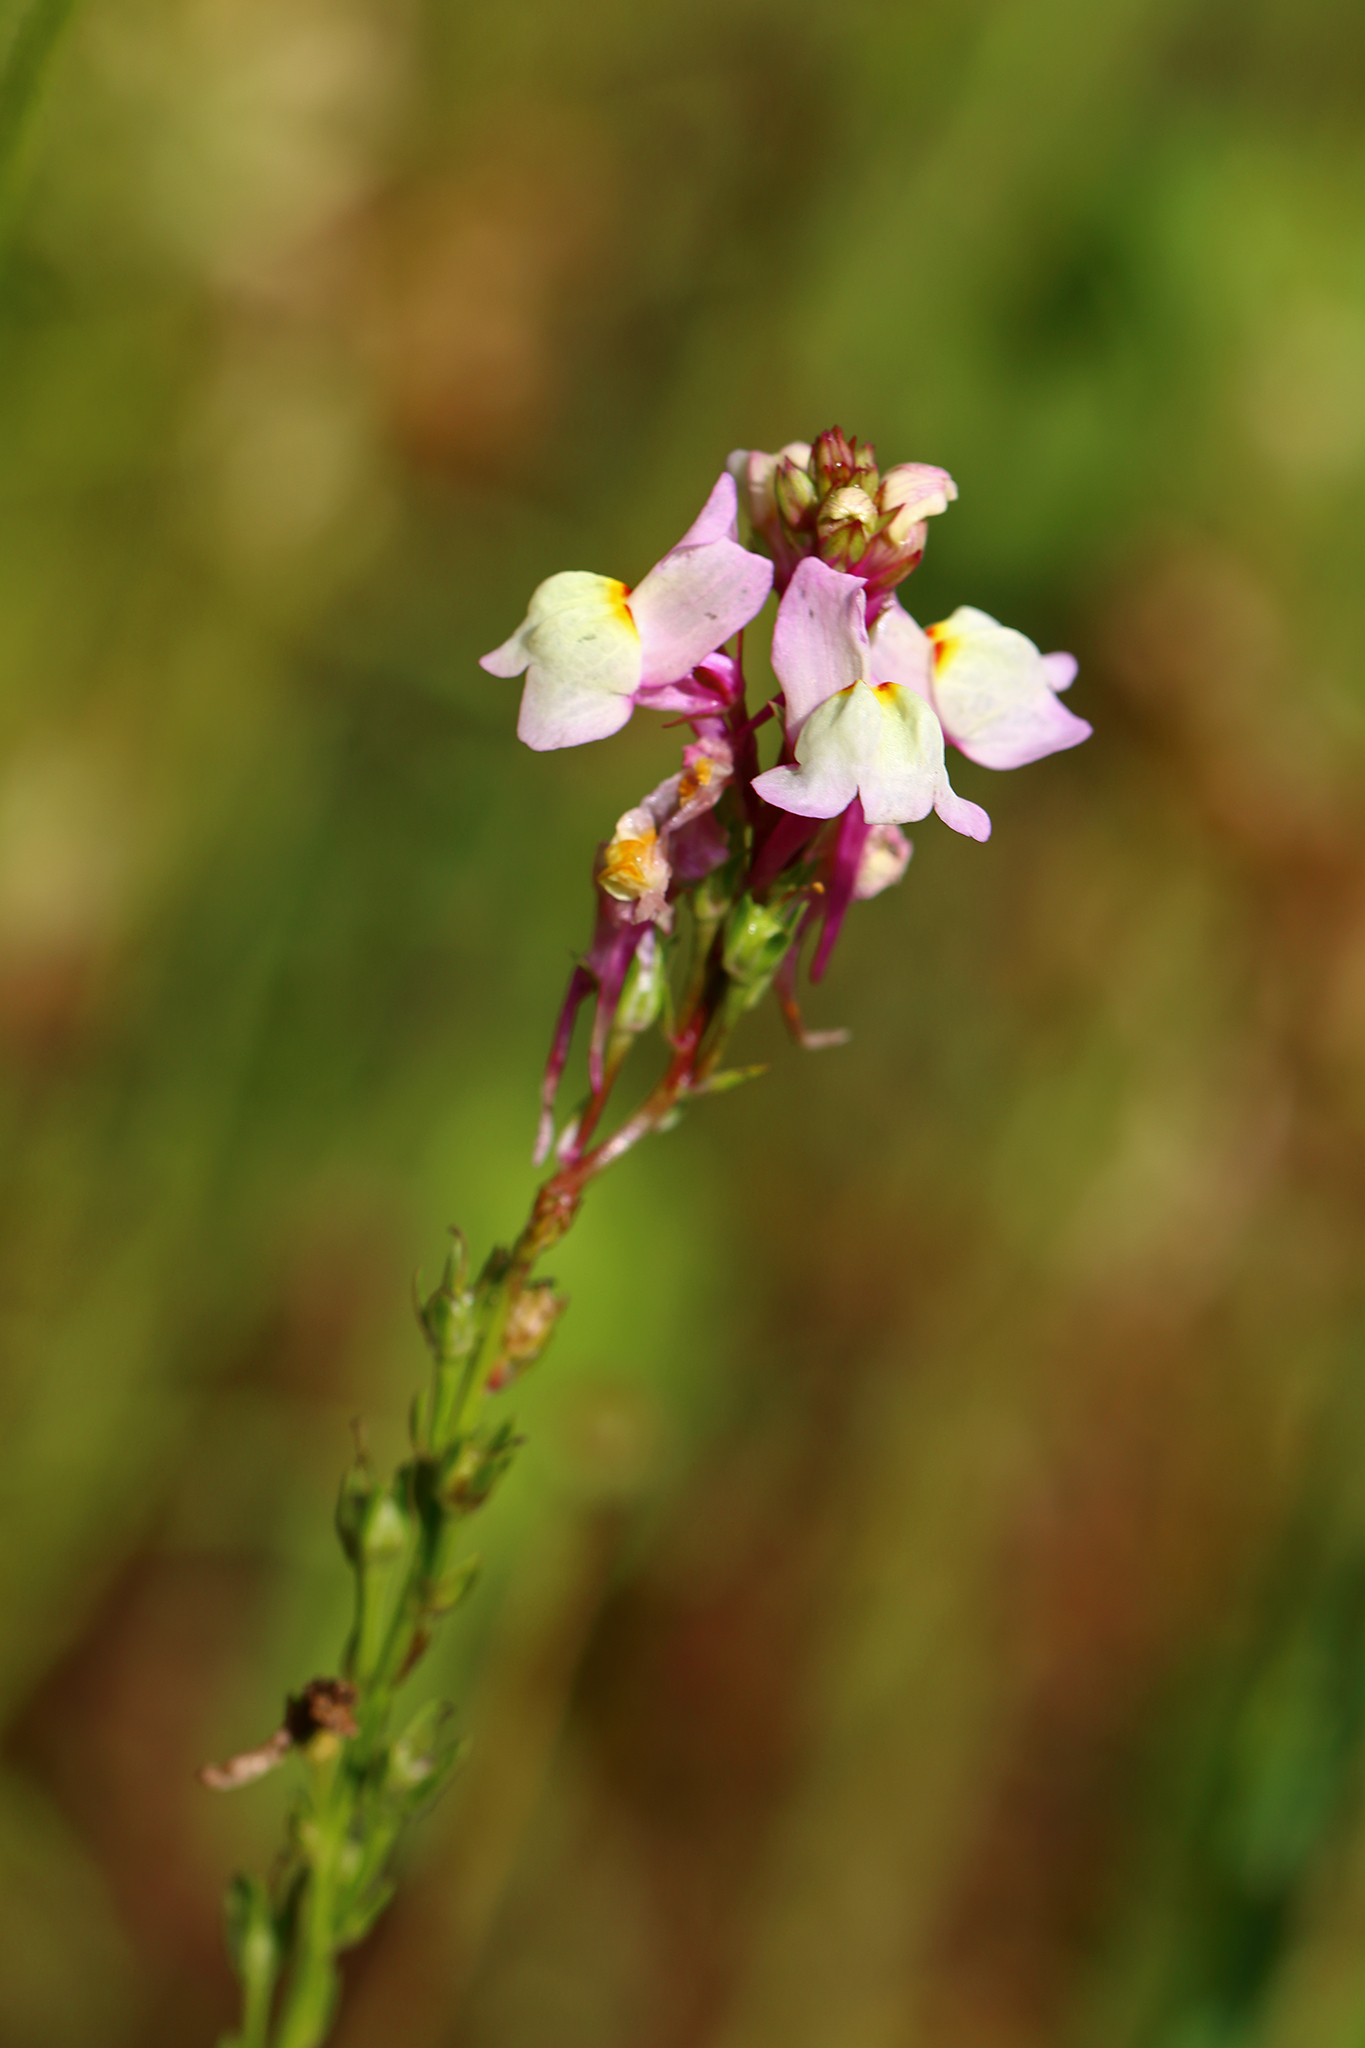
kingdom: Plantae
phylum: Tracheophyta
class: Magnoliopsida
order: Lamiales
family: Plantaginaceae
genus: Linaria
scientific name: Linaria maroccana
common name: Moroccan toadflax
